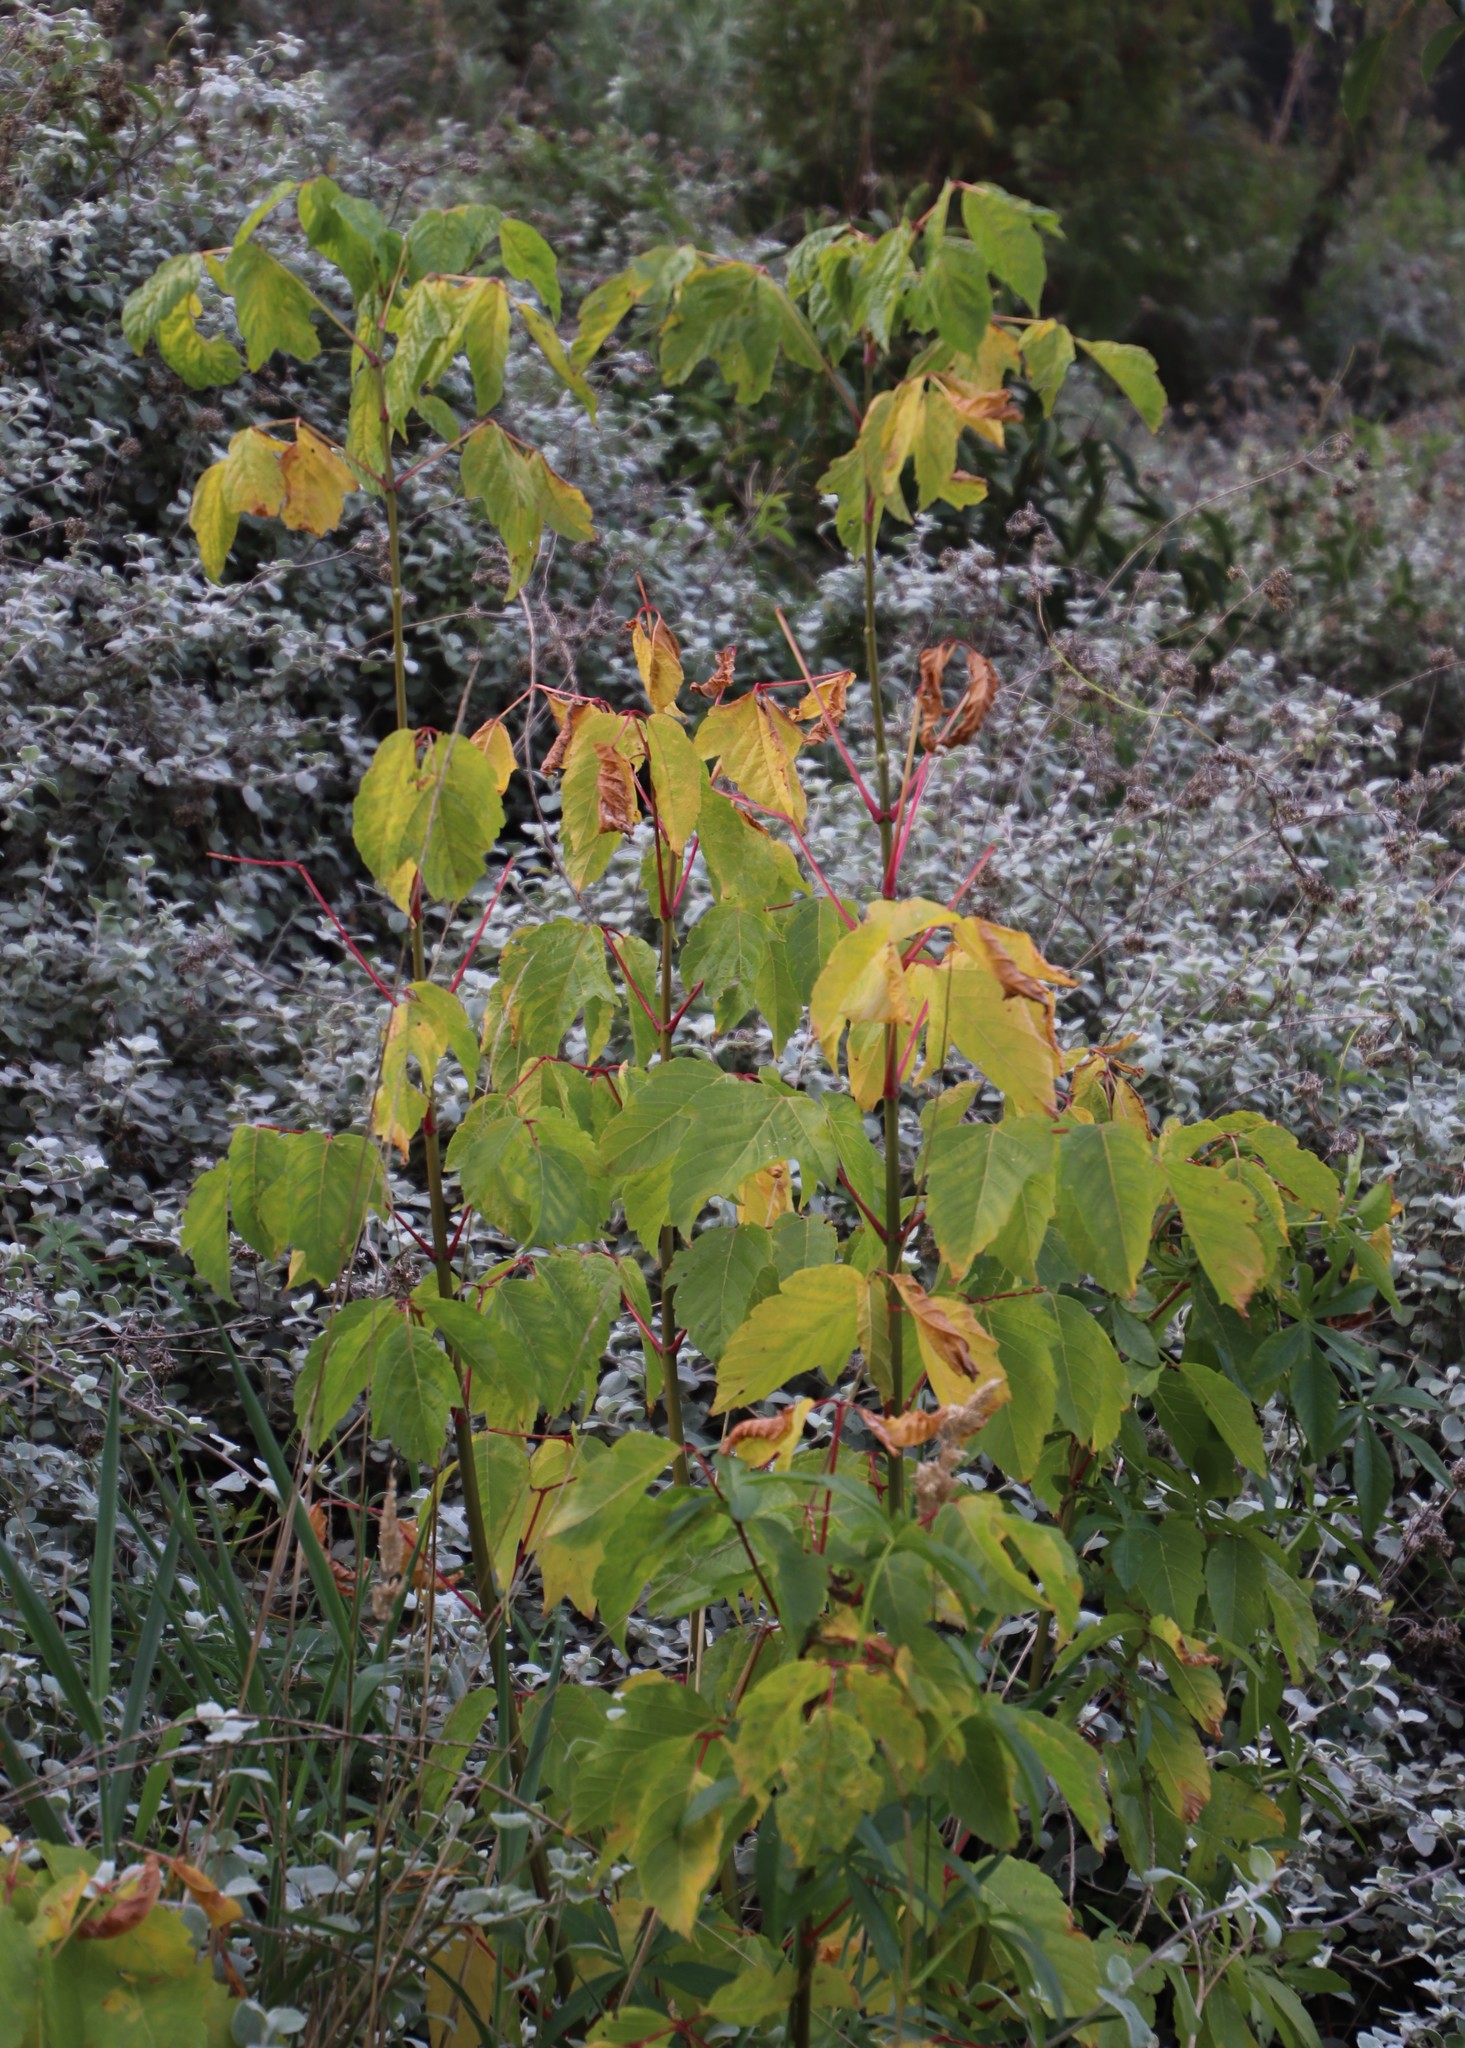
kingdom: Plantae
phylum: Tracheophyta
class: Magnoliopsida
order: Sapindales
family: Sapindaceae
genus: Acer
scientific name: Acer negundo
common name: Ashleaf maple
